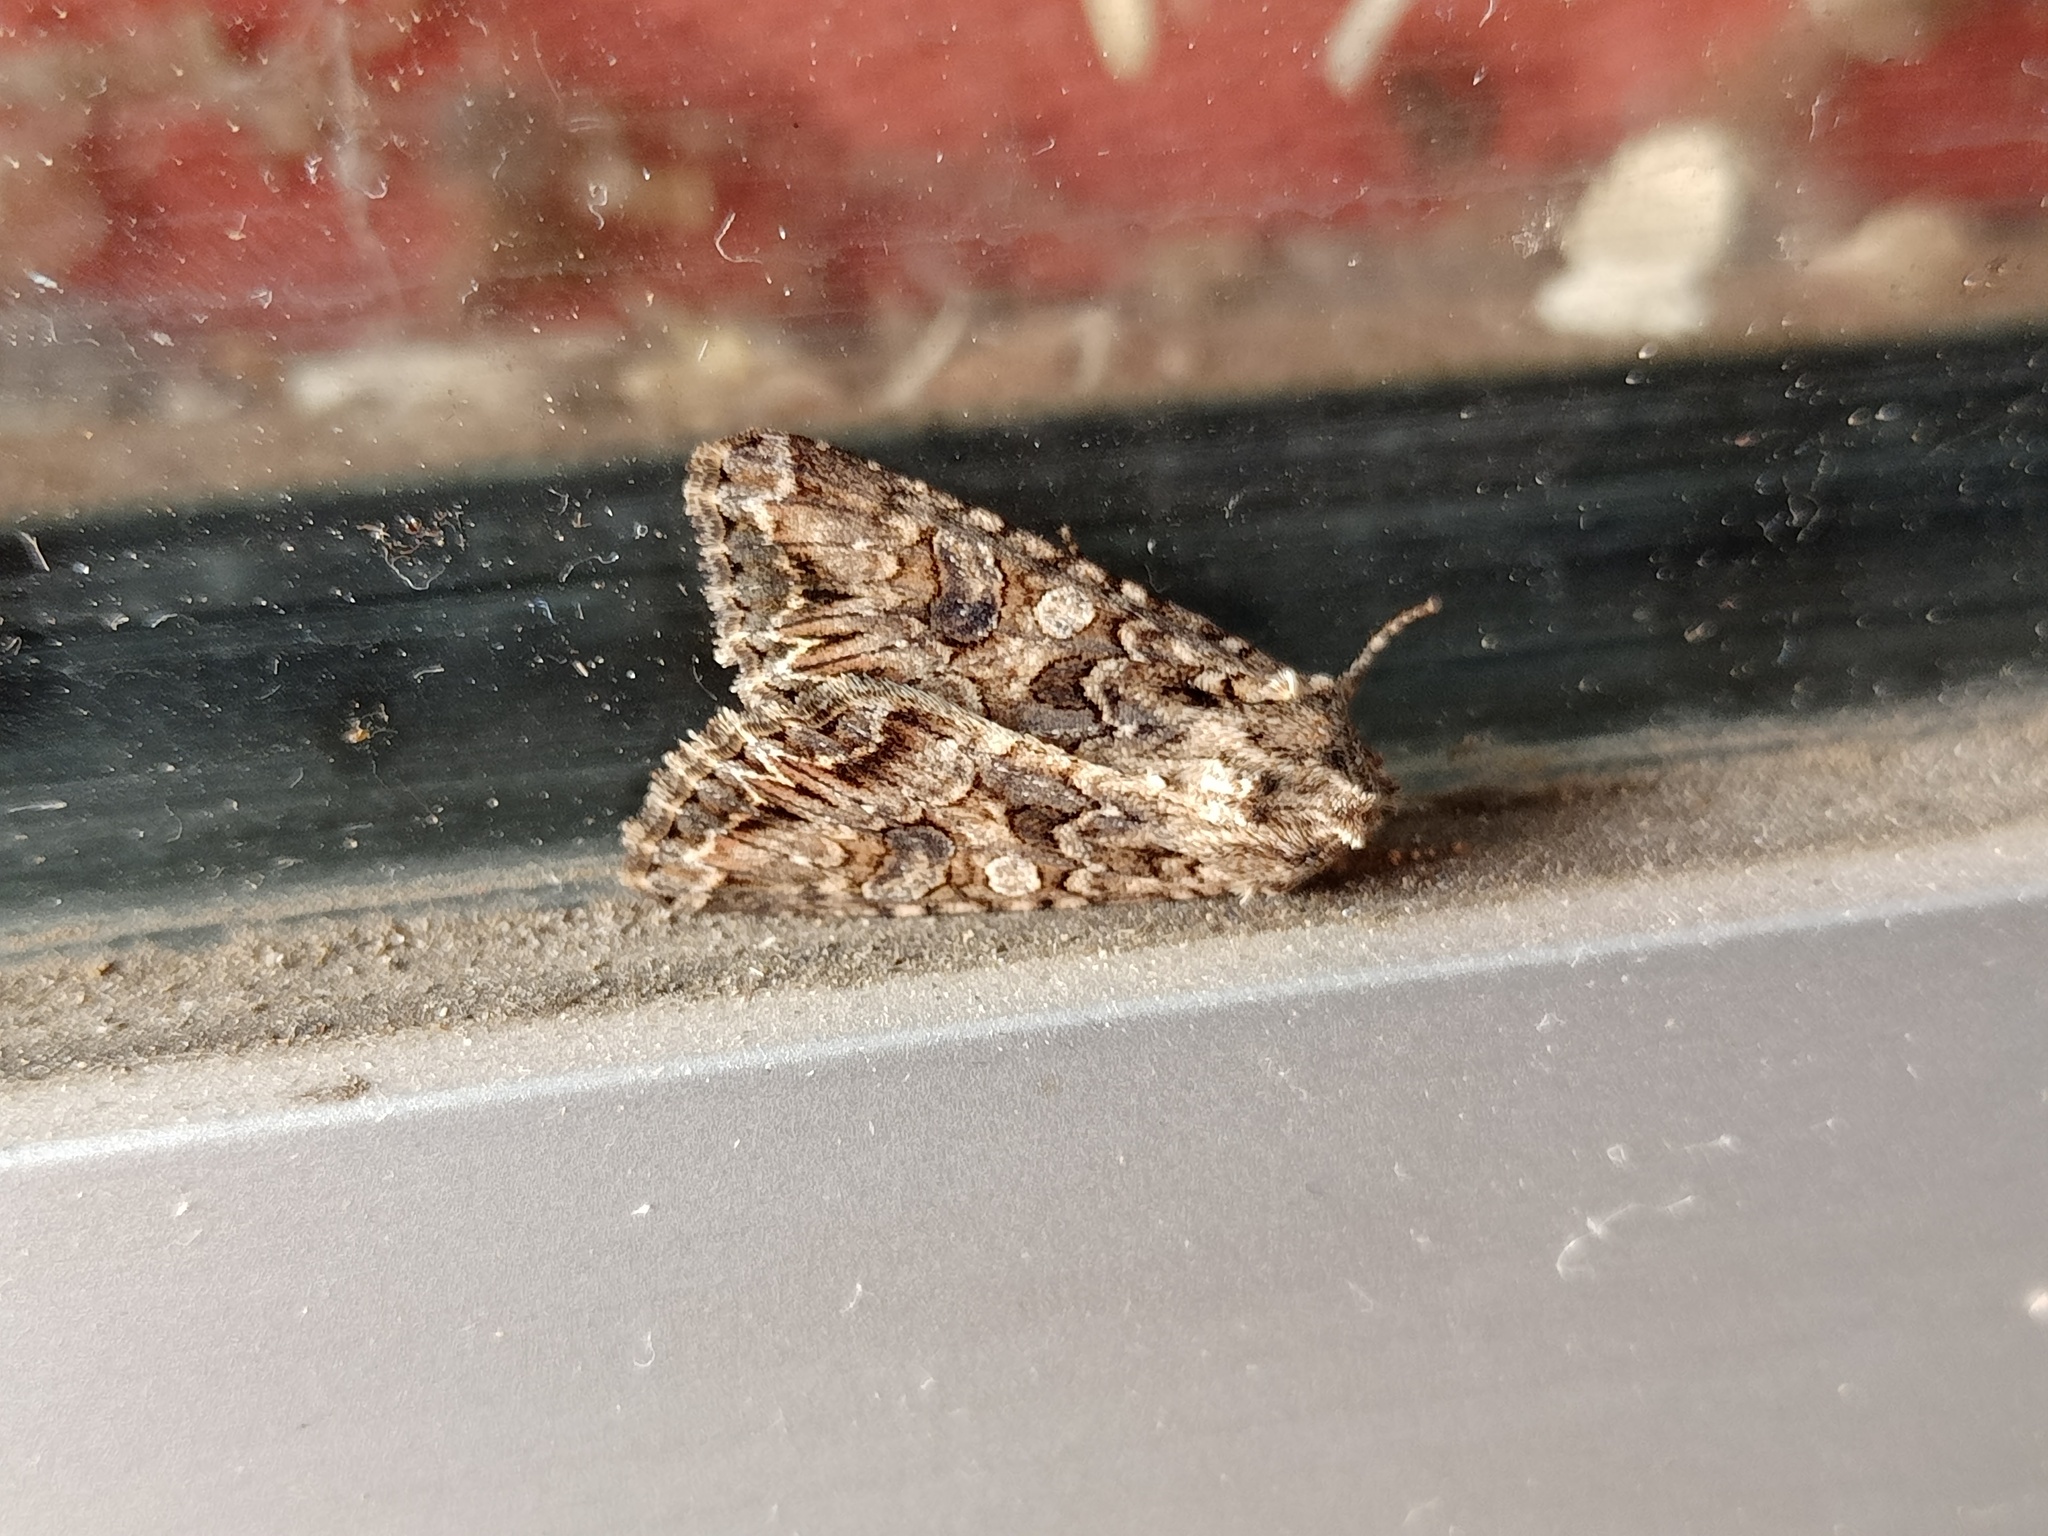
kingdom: Animalia
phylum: Arthropoda
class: Insecta
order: Lepidoptera
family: Noctuidae
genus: Anarta
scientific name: Anarta trifolii
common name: Clover cutworm moth
